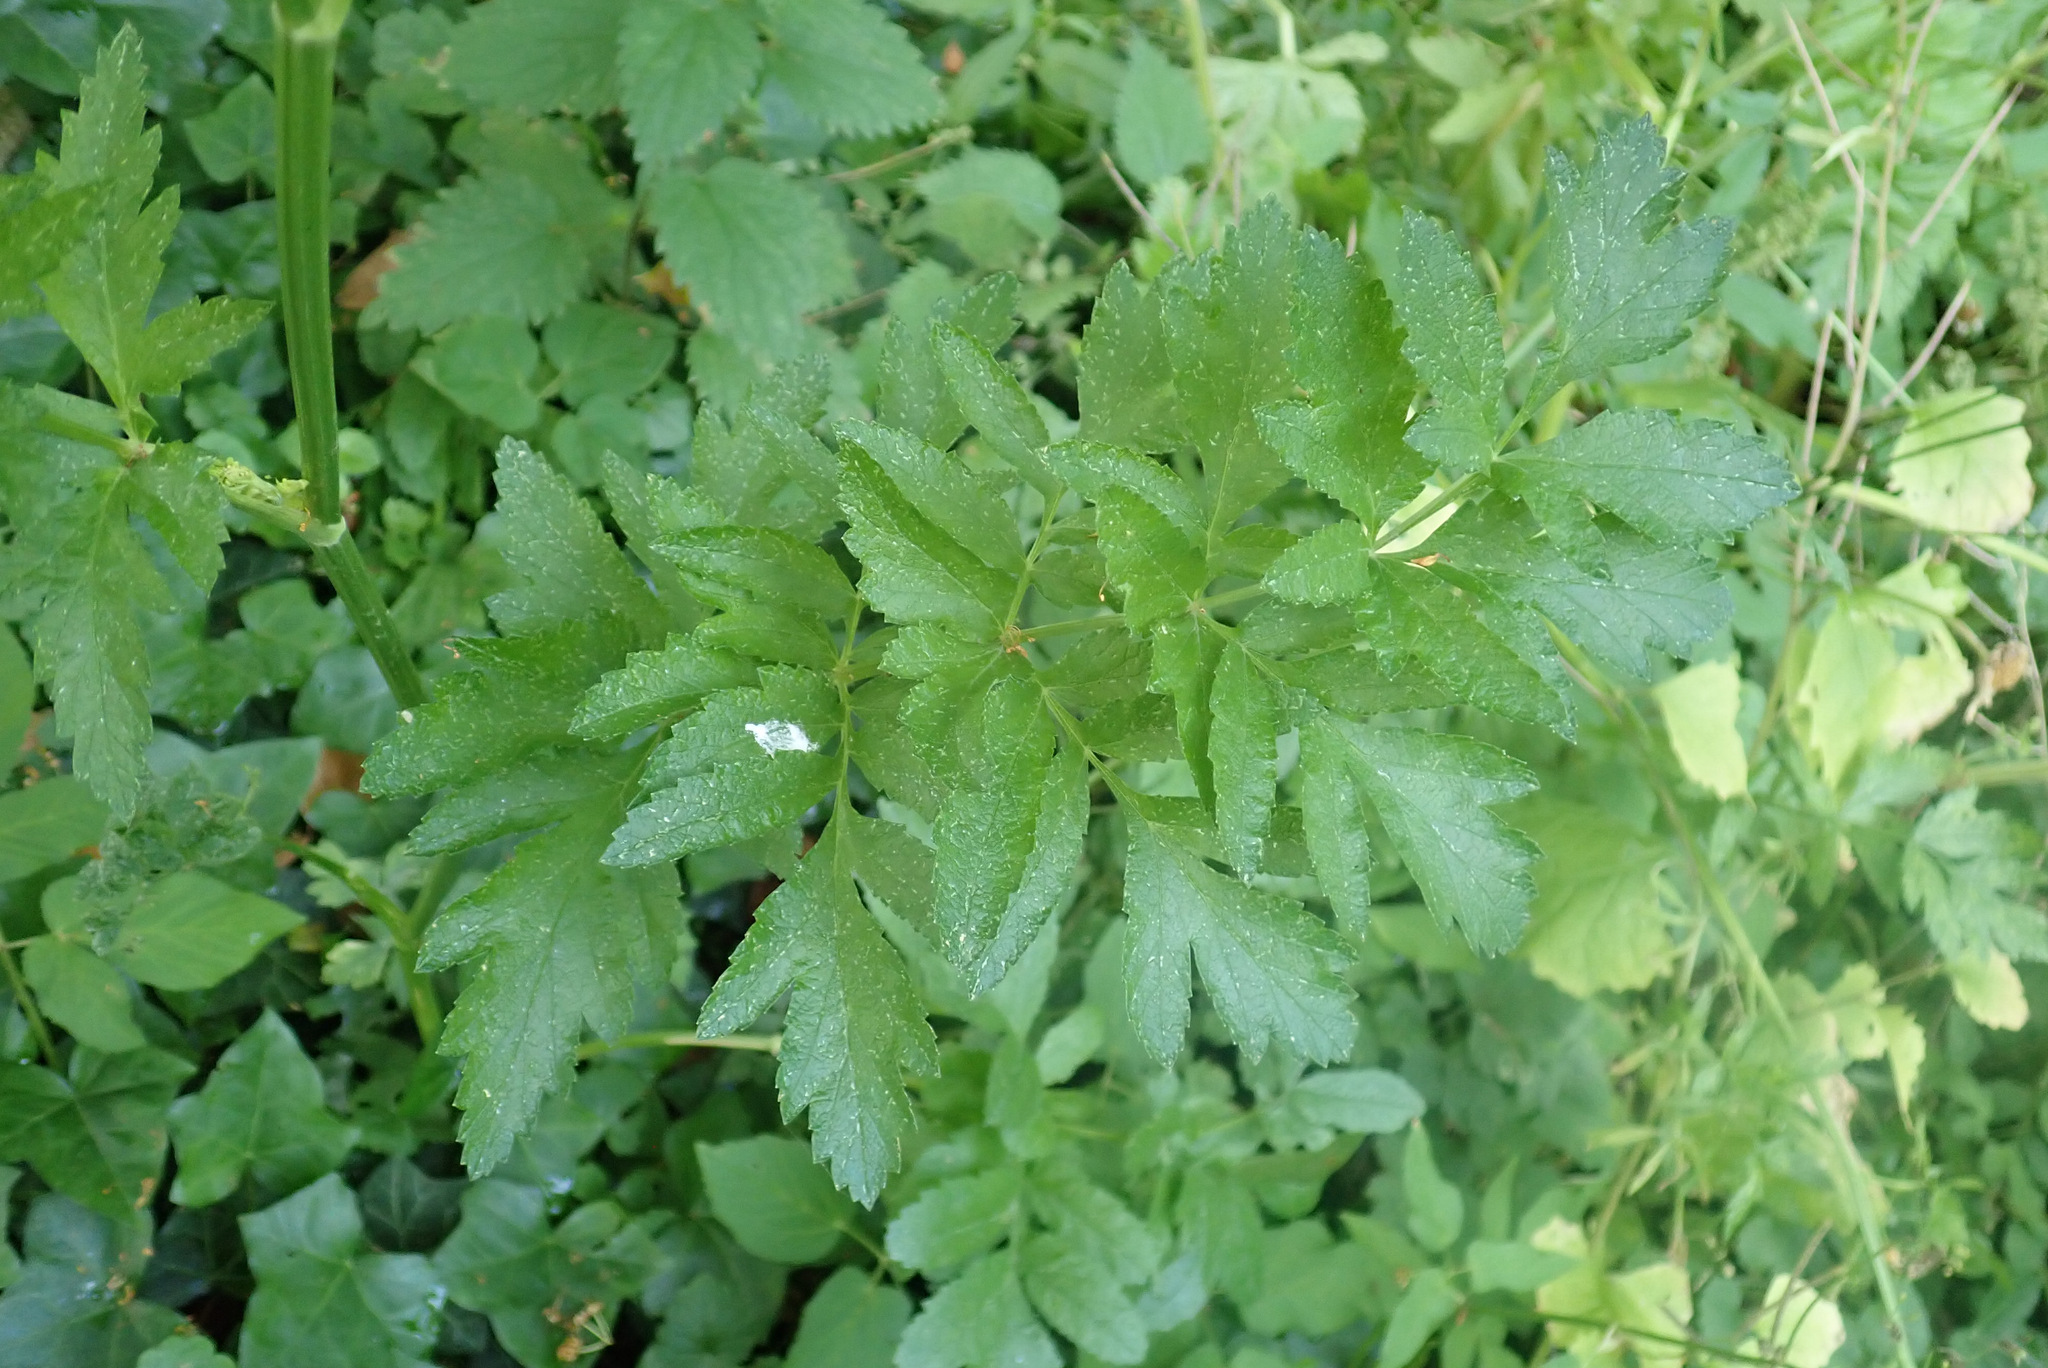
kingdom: Plantae
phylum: Tracheophyta
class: Magnoliopsida
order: Apiales
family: Apiaceae
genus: Pastinaca
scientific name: Pastinaca sativa
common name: Wild parsnip
